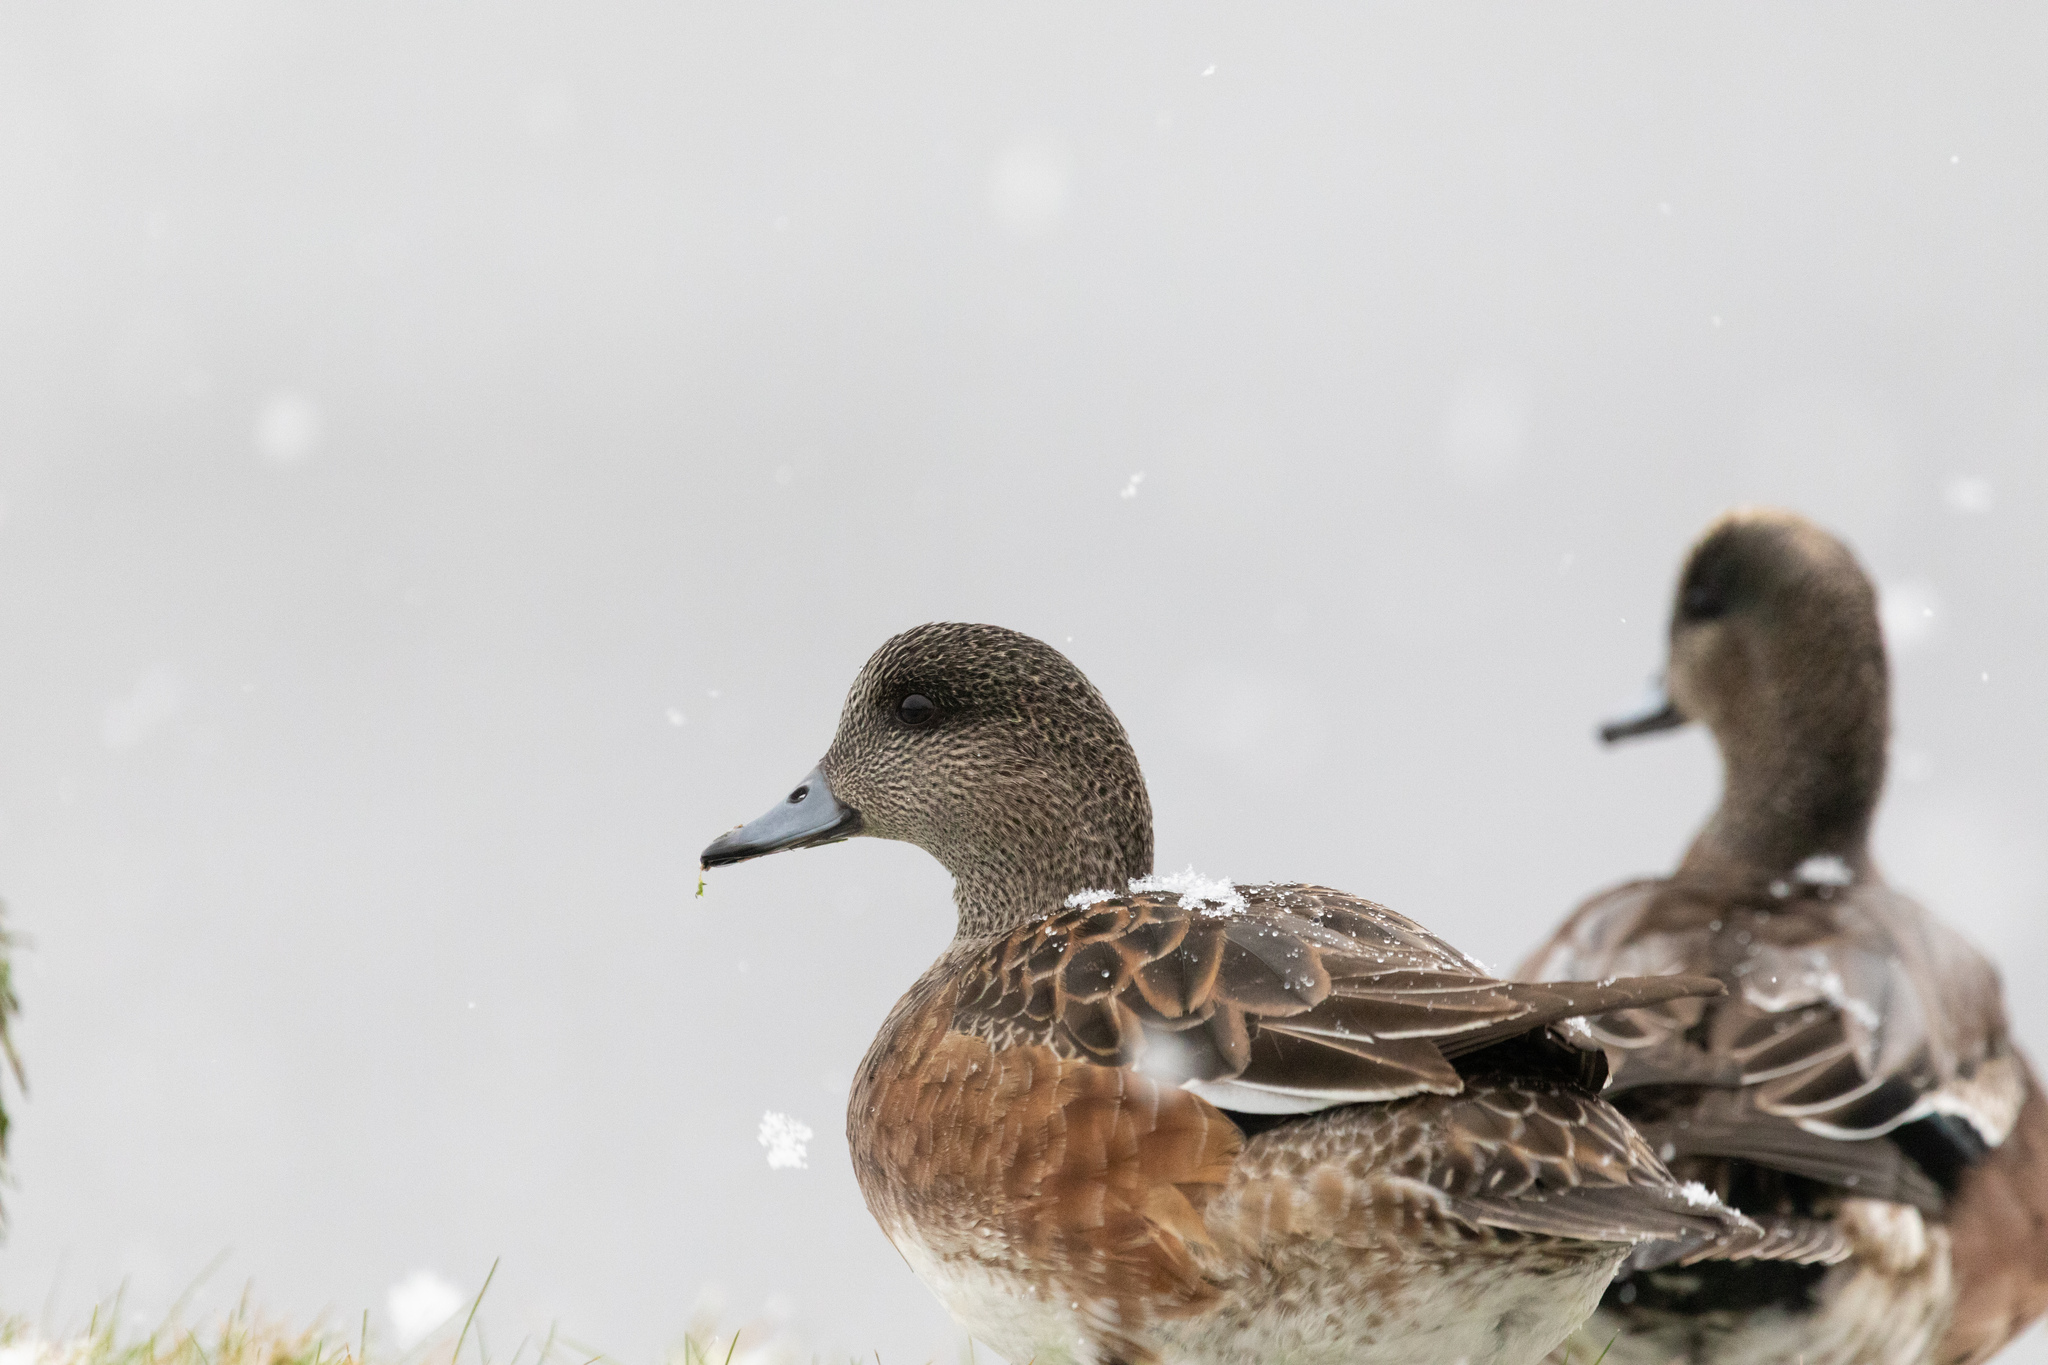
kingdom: Animalia
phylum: Chordata
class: Aves
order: Anseriformes
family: Anatidae
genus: Mareca
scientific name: Mareca americana
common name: American wigeon
